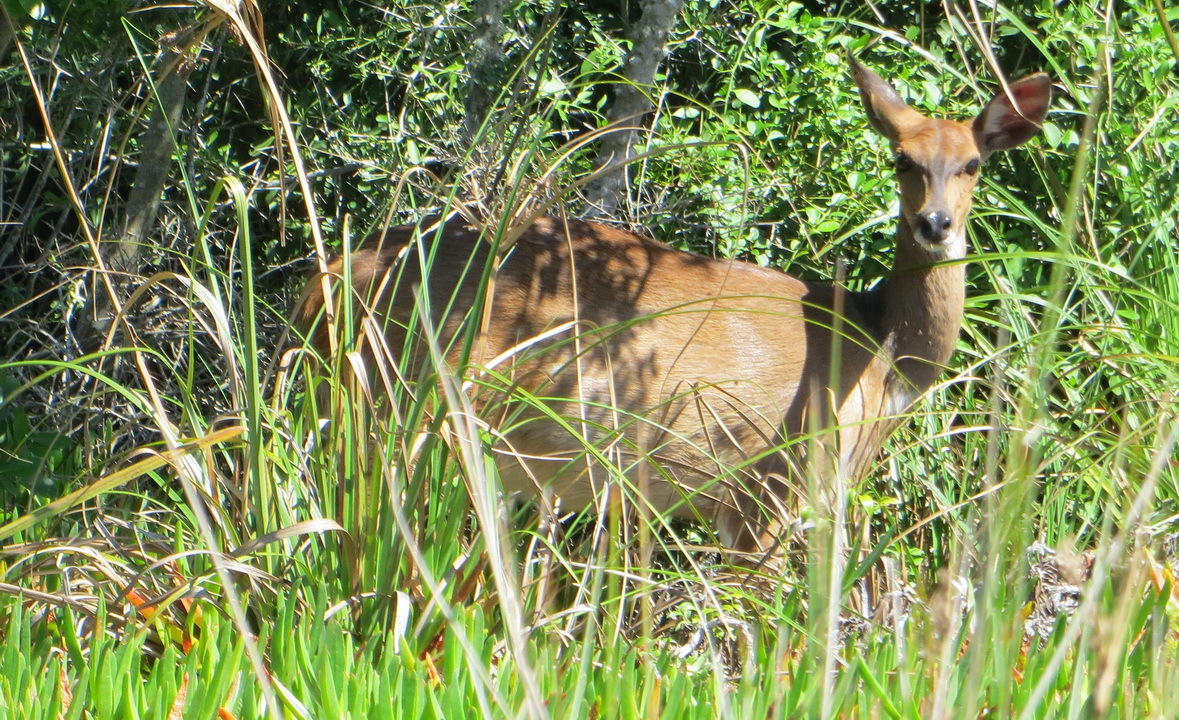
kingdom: Animalia
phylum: Chordata
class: Mammalia
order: Artiodactyla
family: Bovidae
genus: Tragelaphus
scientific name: Tragelaphus scriptus
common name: Bushbuck
